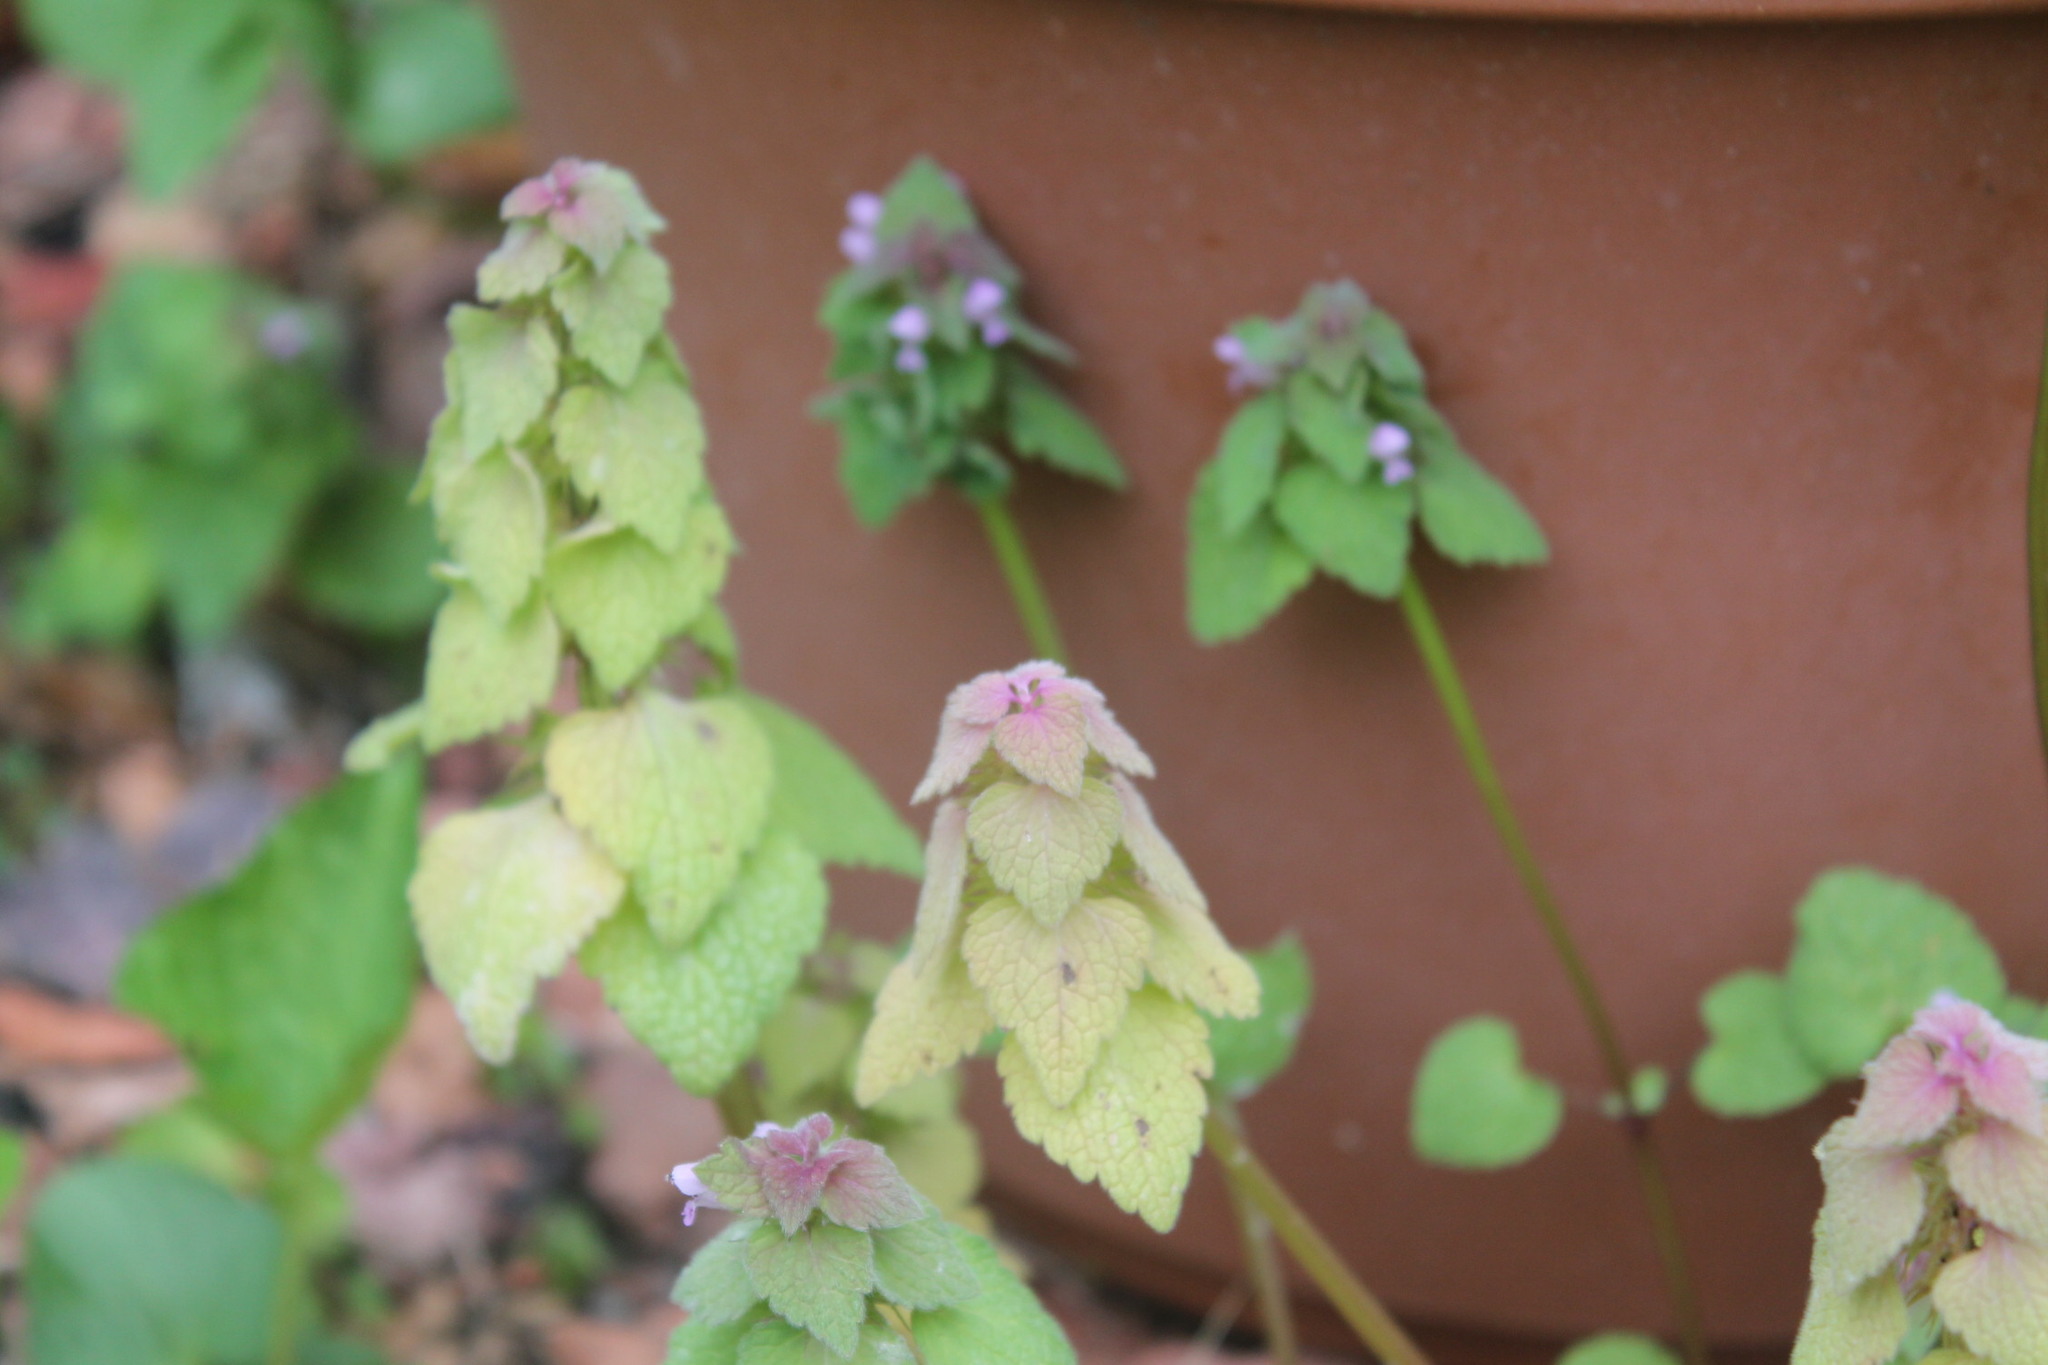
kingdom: Plantae
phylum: Tracheophyta
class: Magnoliopsida
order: Lamiales
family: Lamiaceae
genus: Lamium
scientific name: Lamium purpureum
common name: Red dead-nettle
